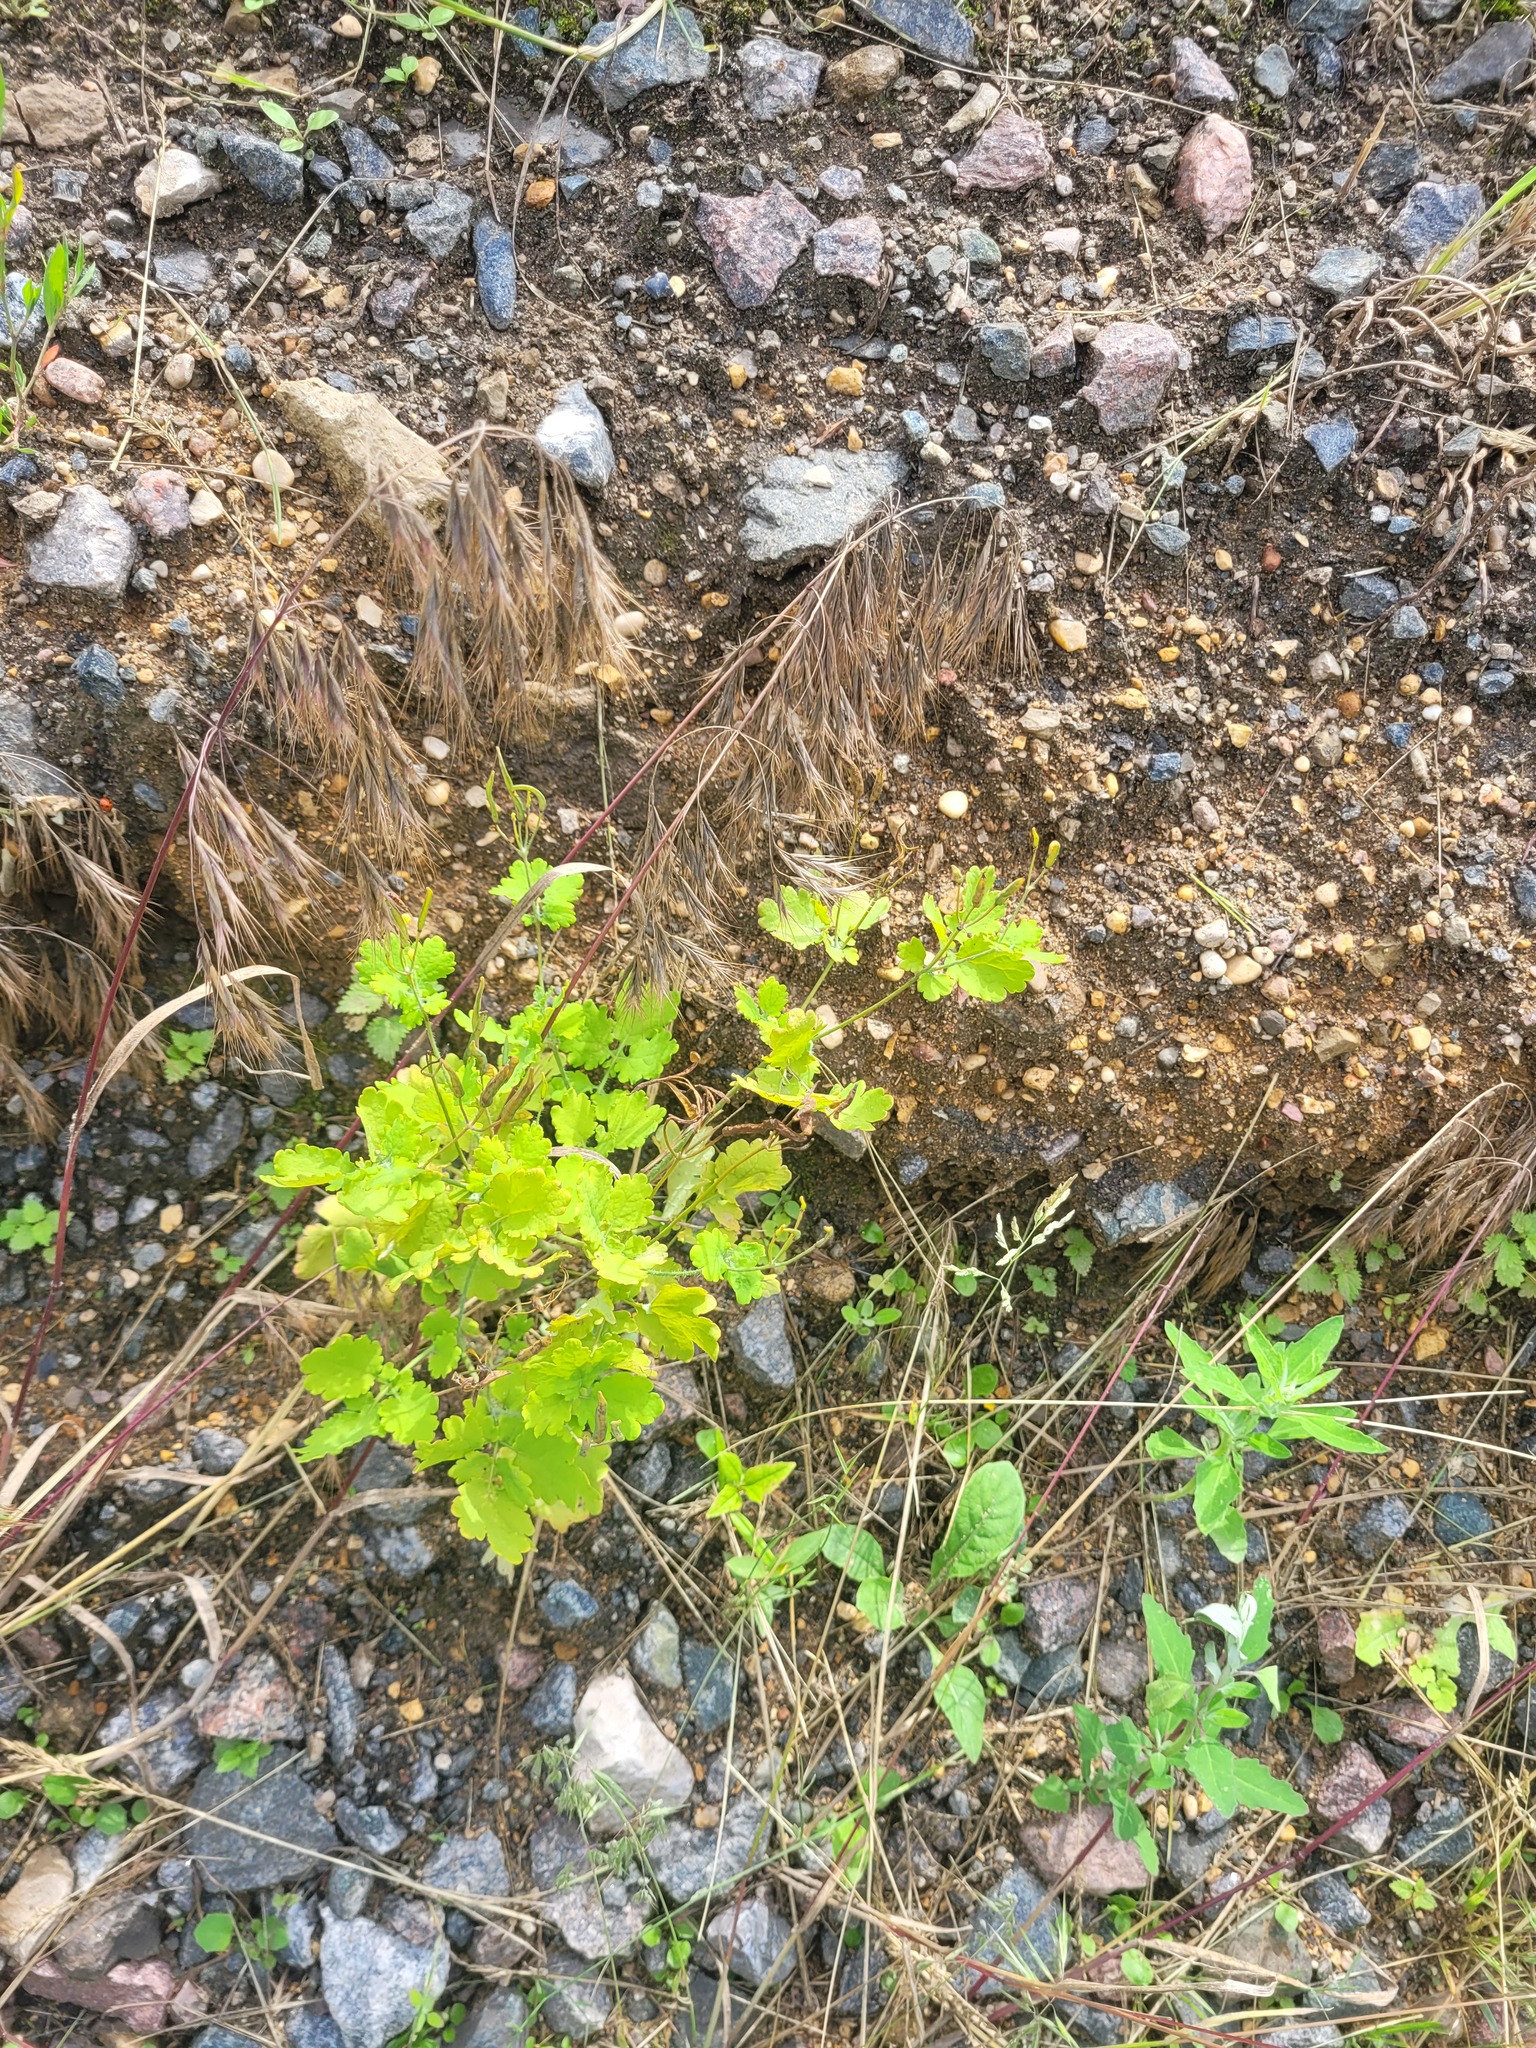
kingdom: Plantae
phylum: Tracheophyta
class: Magnoliopsida
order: Ranunculales
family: Papaveraceae
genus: Chelidonium
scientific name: Chelidonium majus
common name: Greater celandine
